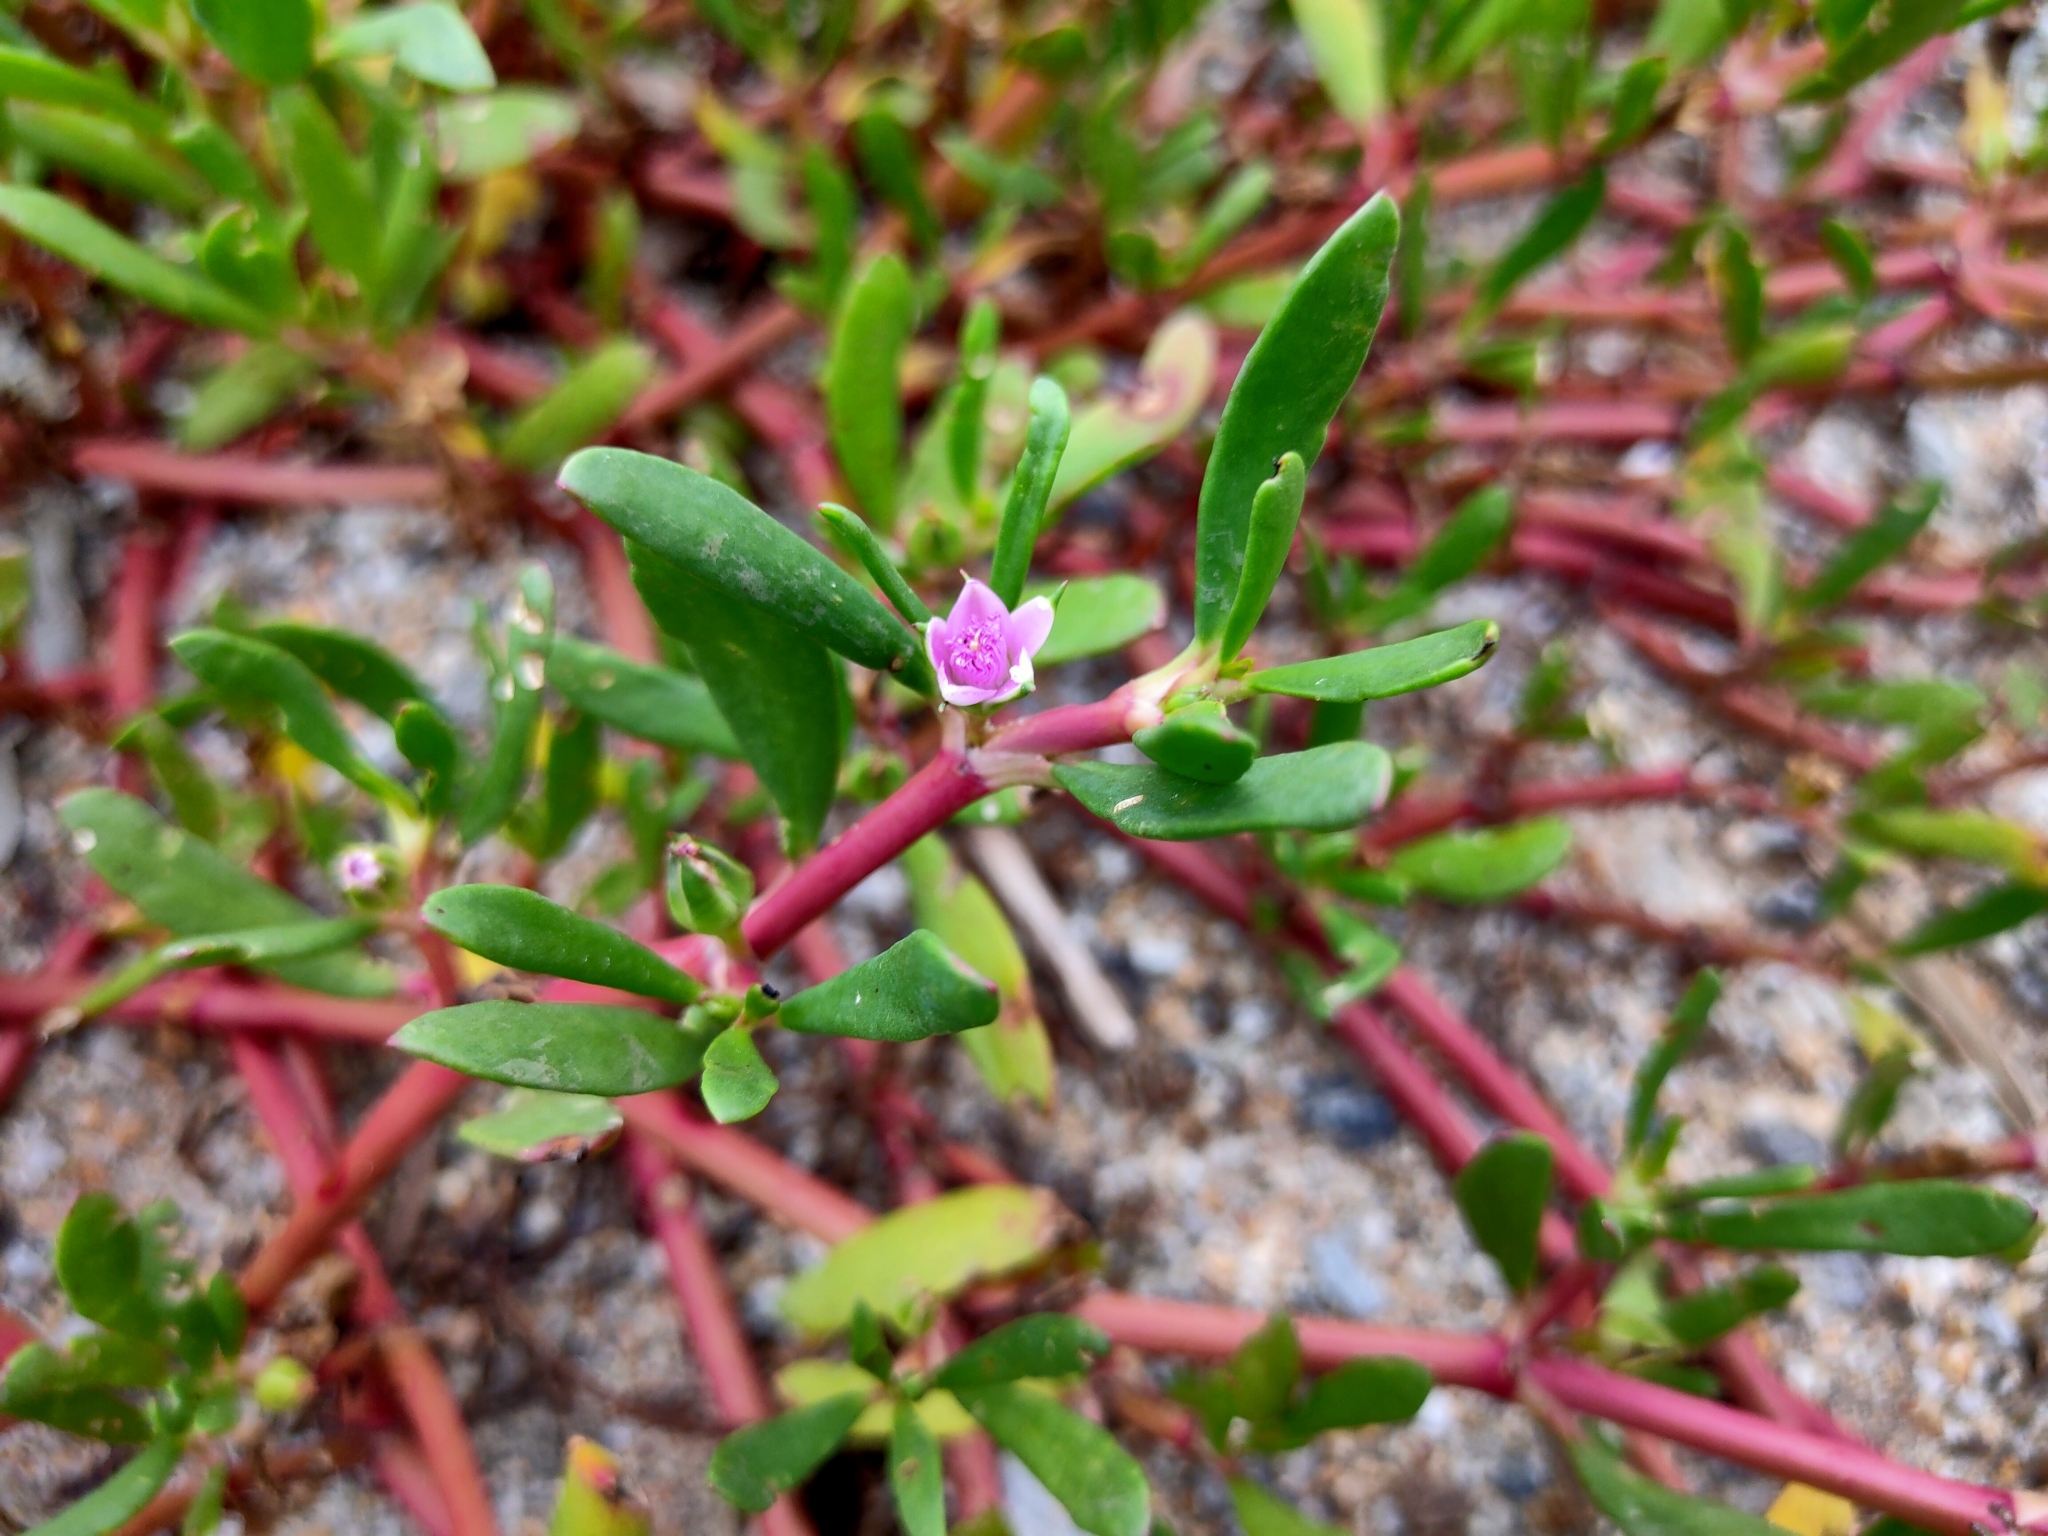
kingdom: Plantae
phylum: Tracheophyta
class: Magnoliopsida
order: Caryophyllales
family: Aizoaceae
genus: Sesuvium
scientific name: Sesuvium portulacastrum
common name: Sea-purslane
